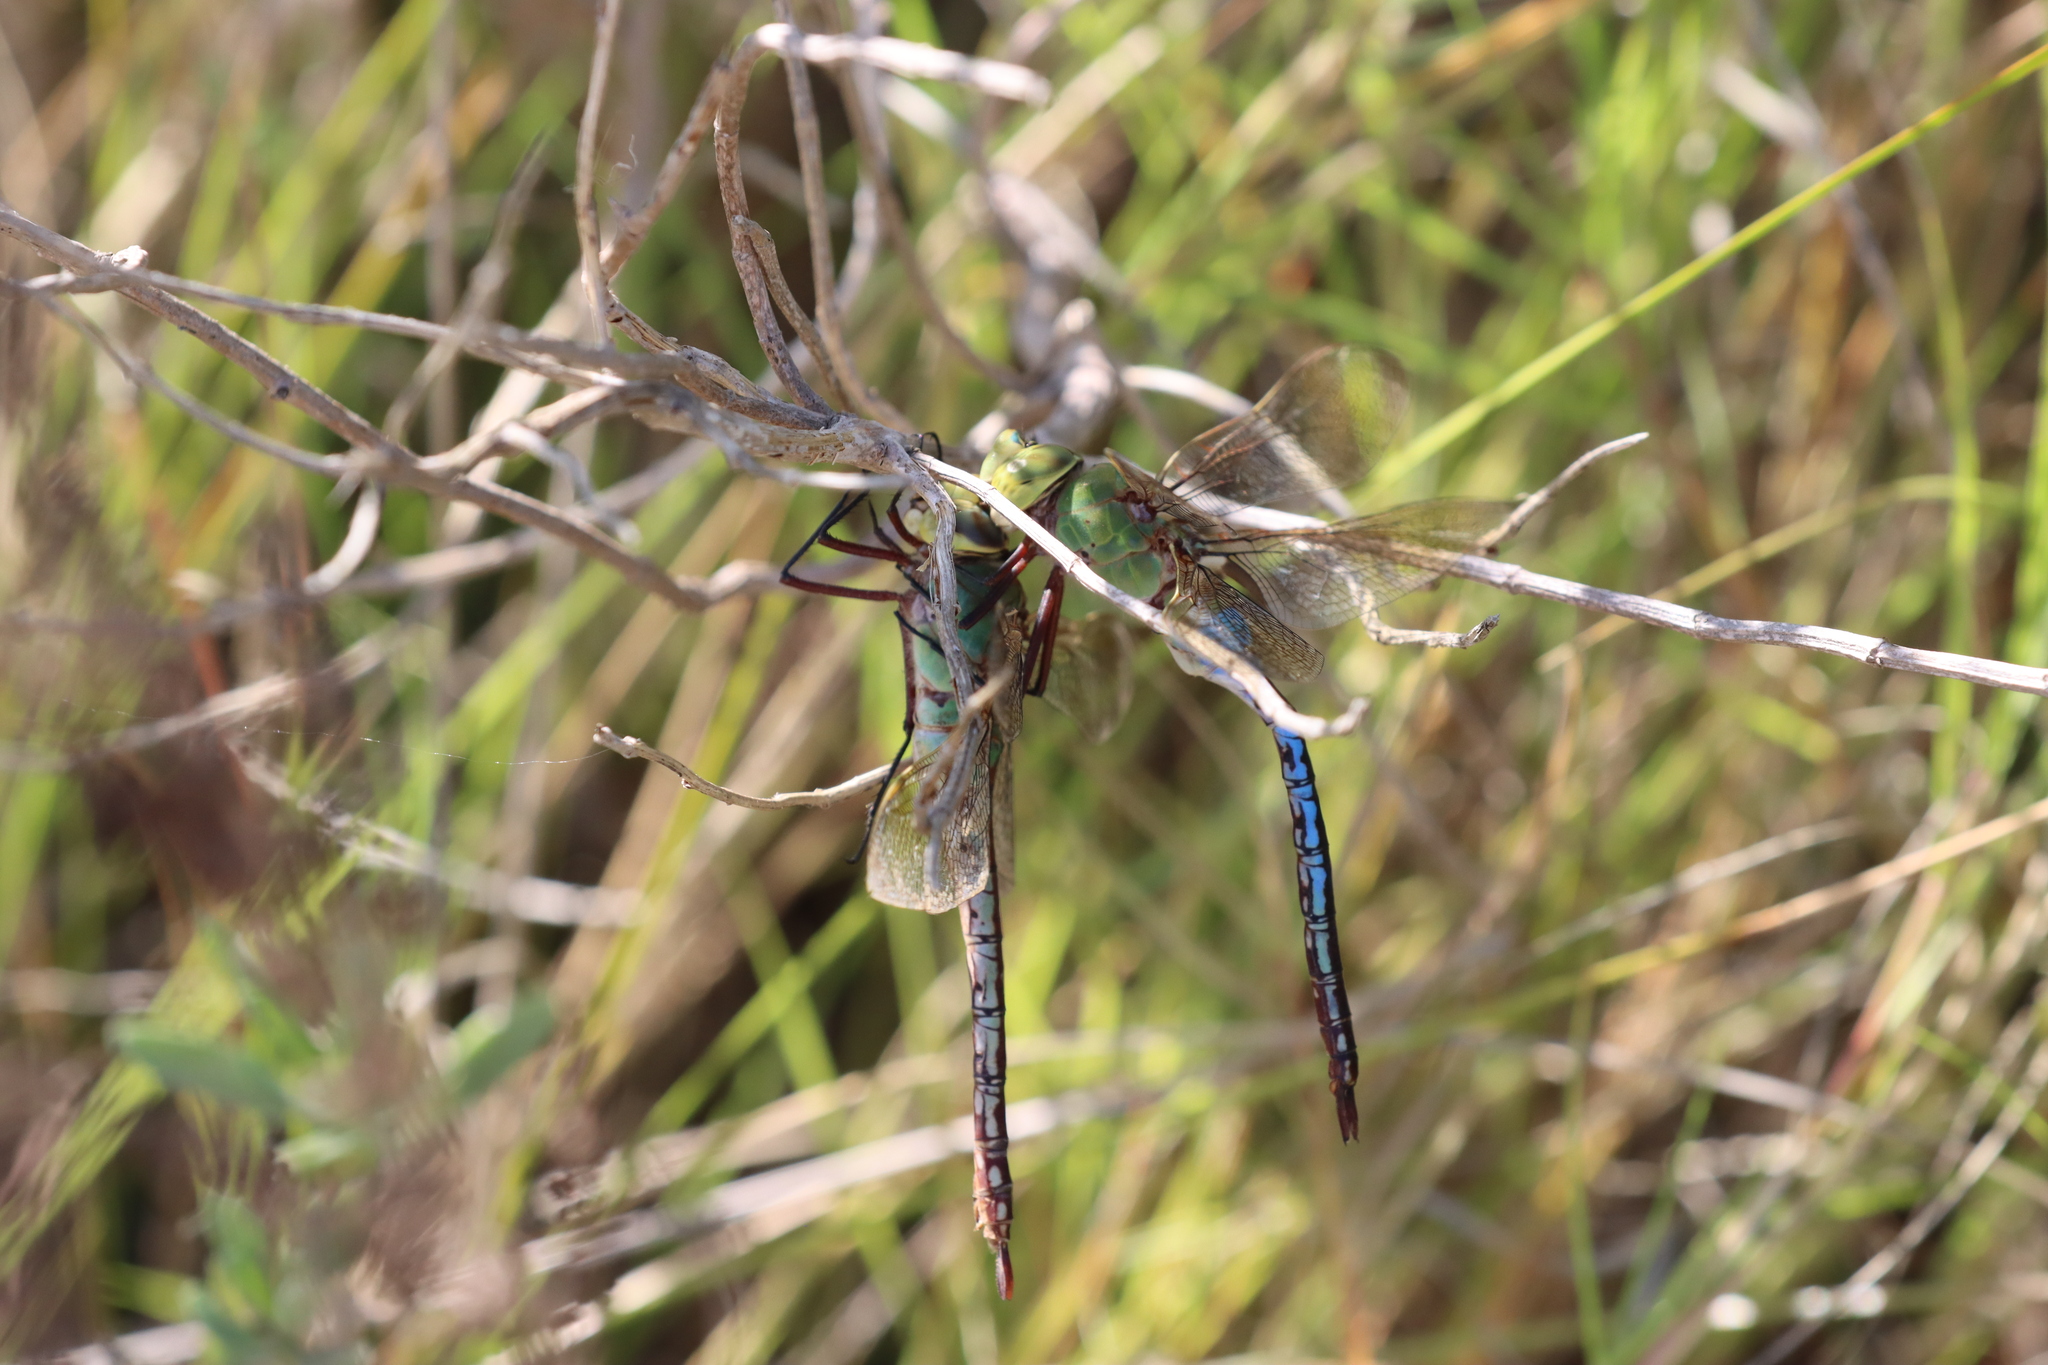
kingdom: Animalia
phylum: Arthropoda
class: Insecta
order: Odonata
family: Aeshnidae
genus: Anax
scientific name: Anax junius
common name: Common green darner
